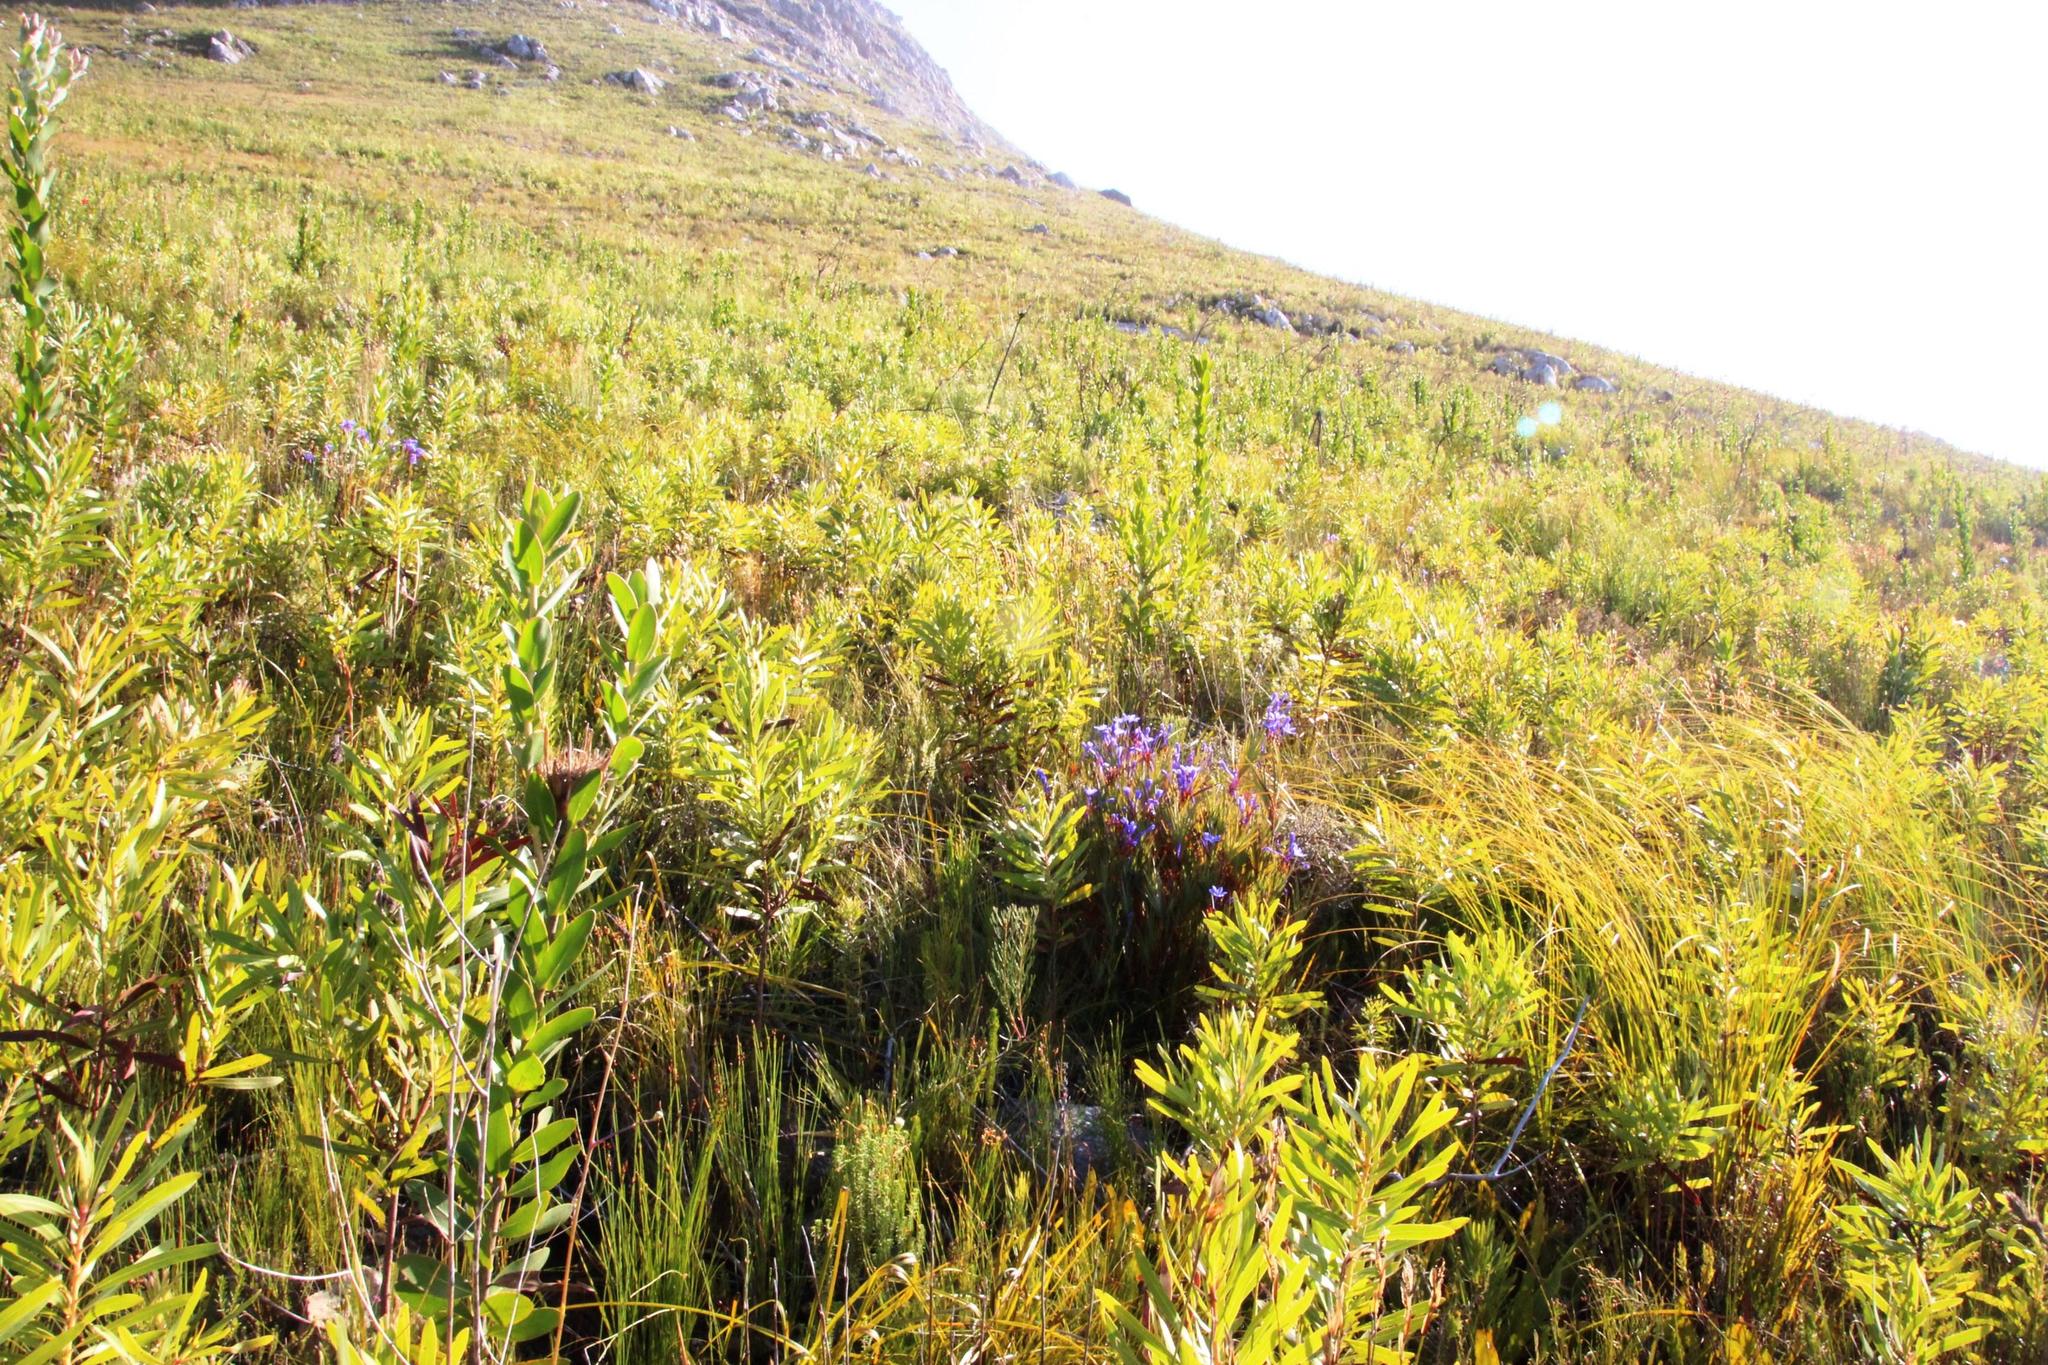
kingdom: Plantae
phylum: Tracheophyta
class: Magnoliopsida
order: Ericales
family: Ericaceae
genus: Erica
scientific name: Erica viscaria
